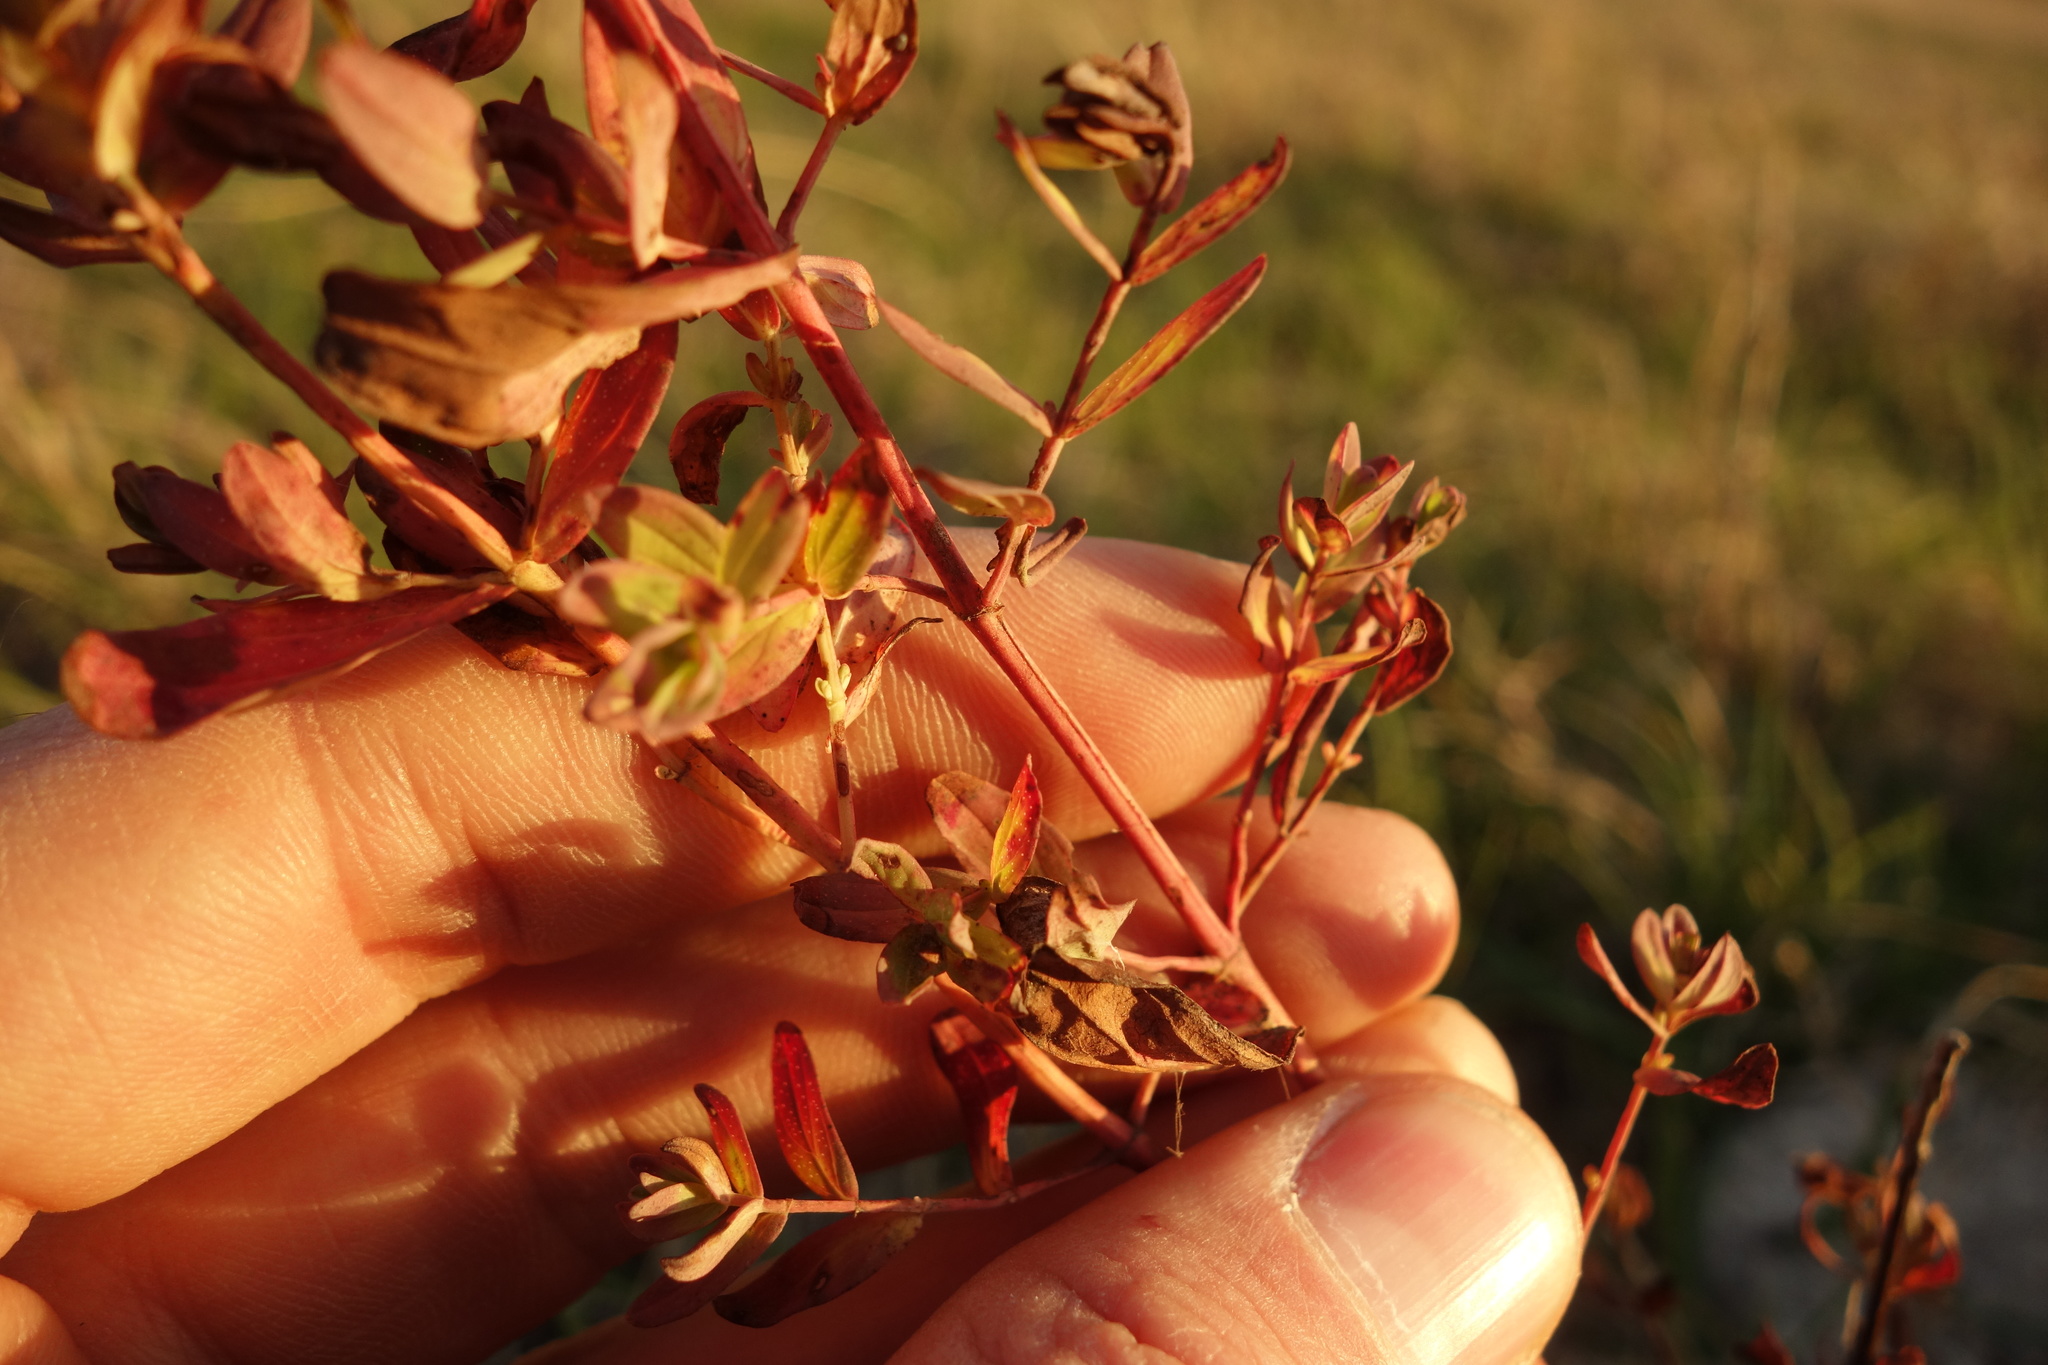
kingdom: Plantae
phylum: Tracheophyta
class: Magnoliopsida
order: Malpighiales
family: Hypericaceae
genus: Hypericum
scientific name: Hypericum perforatum
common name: Common st. johnswort
